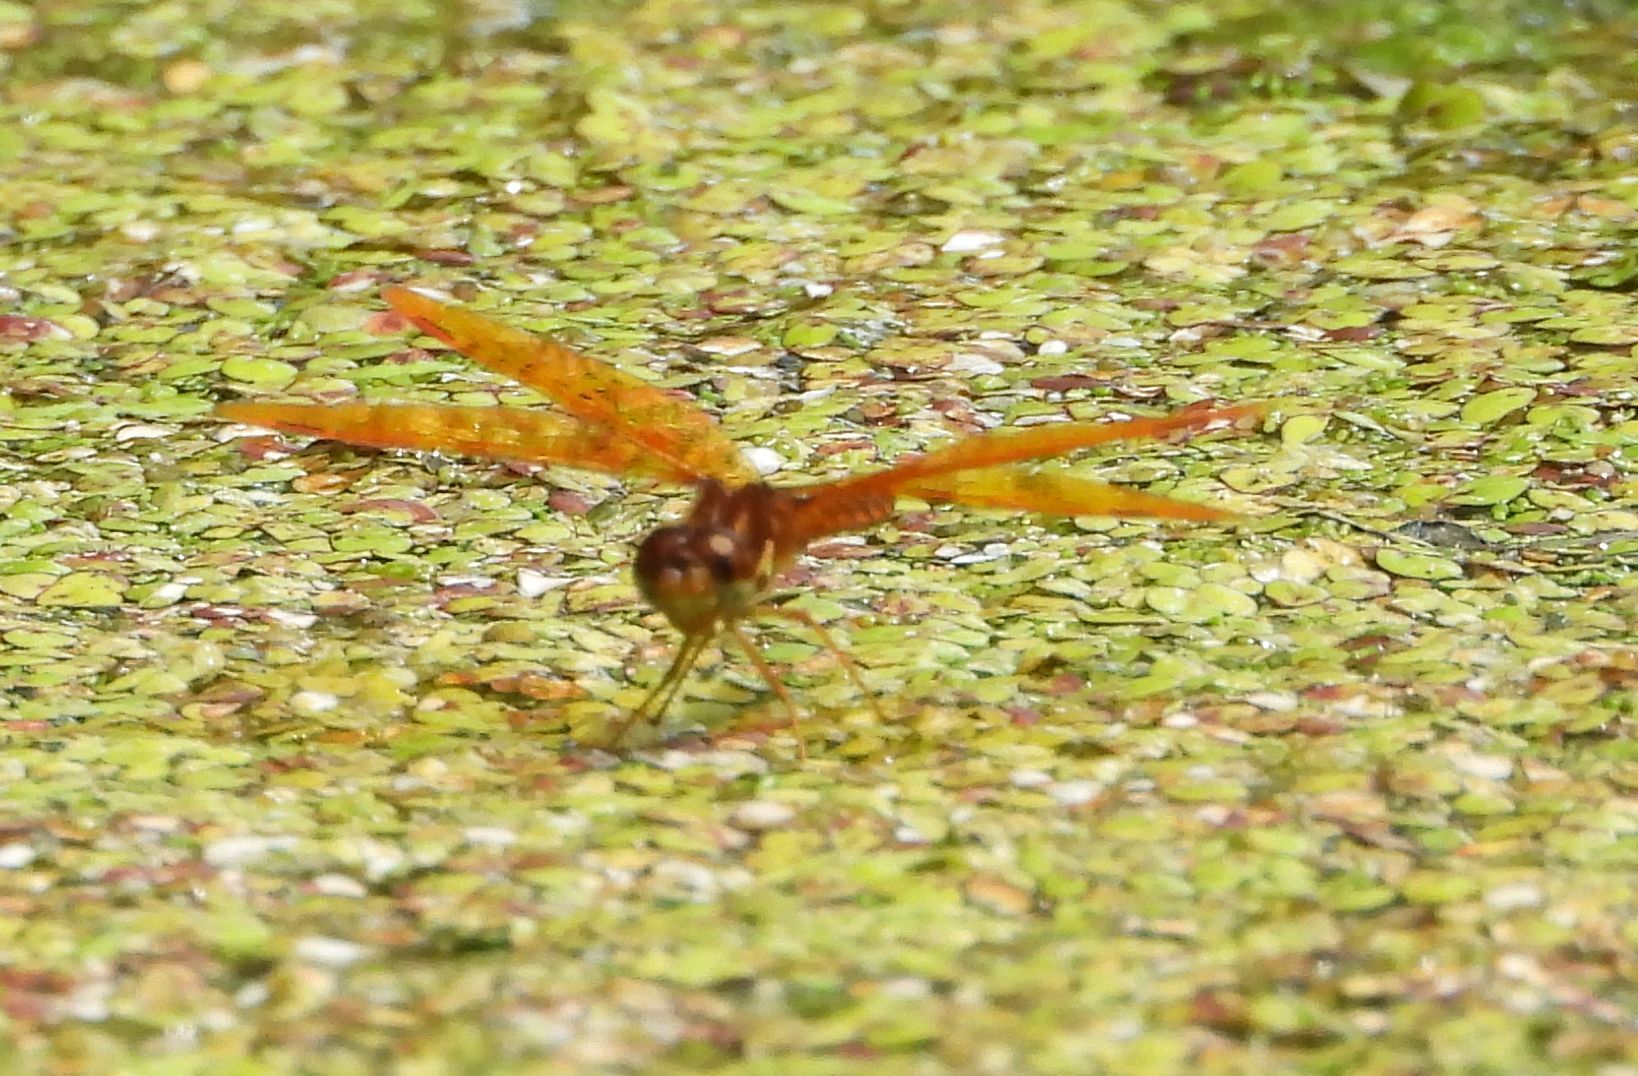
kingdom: Animalia
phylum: Arthropoda
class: Insecta
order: Odonata
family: Libellulidae
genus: Perithemis
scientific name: Perithemis tenera
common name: Eastern amberwing
